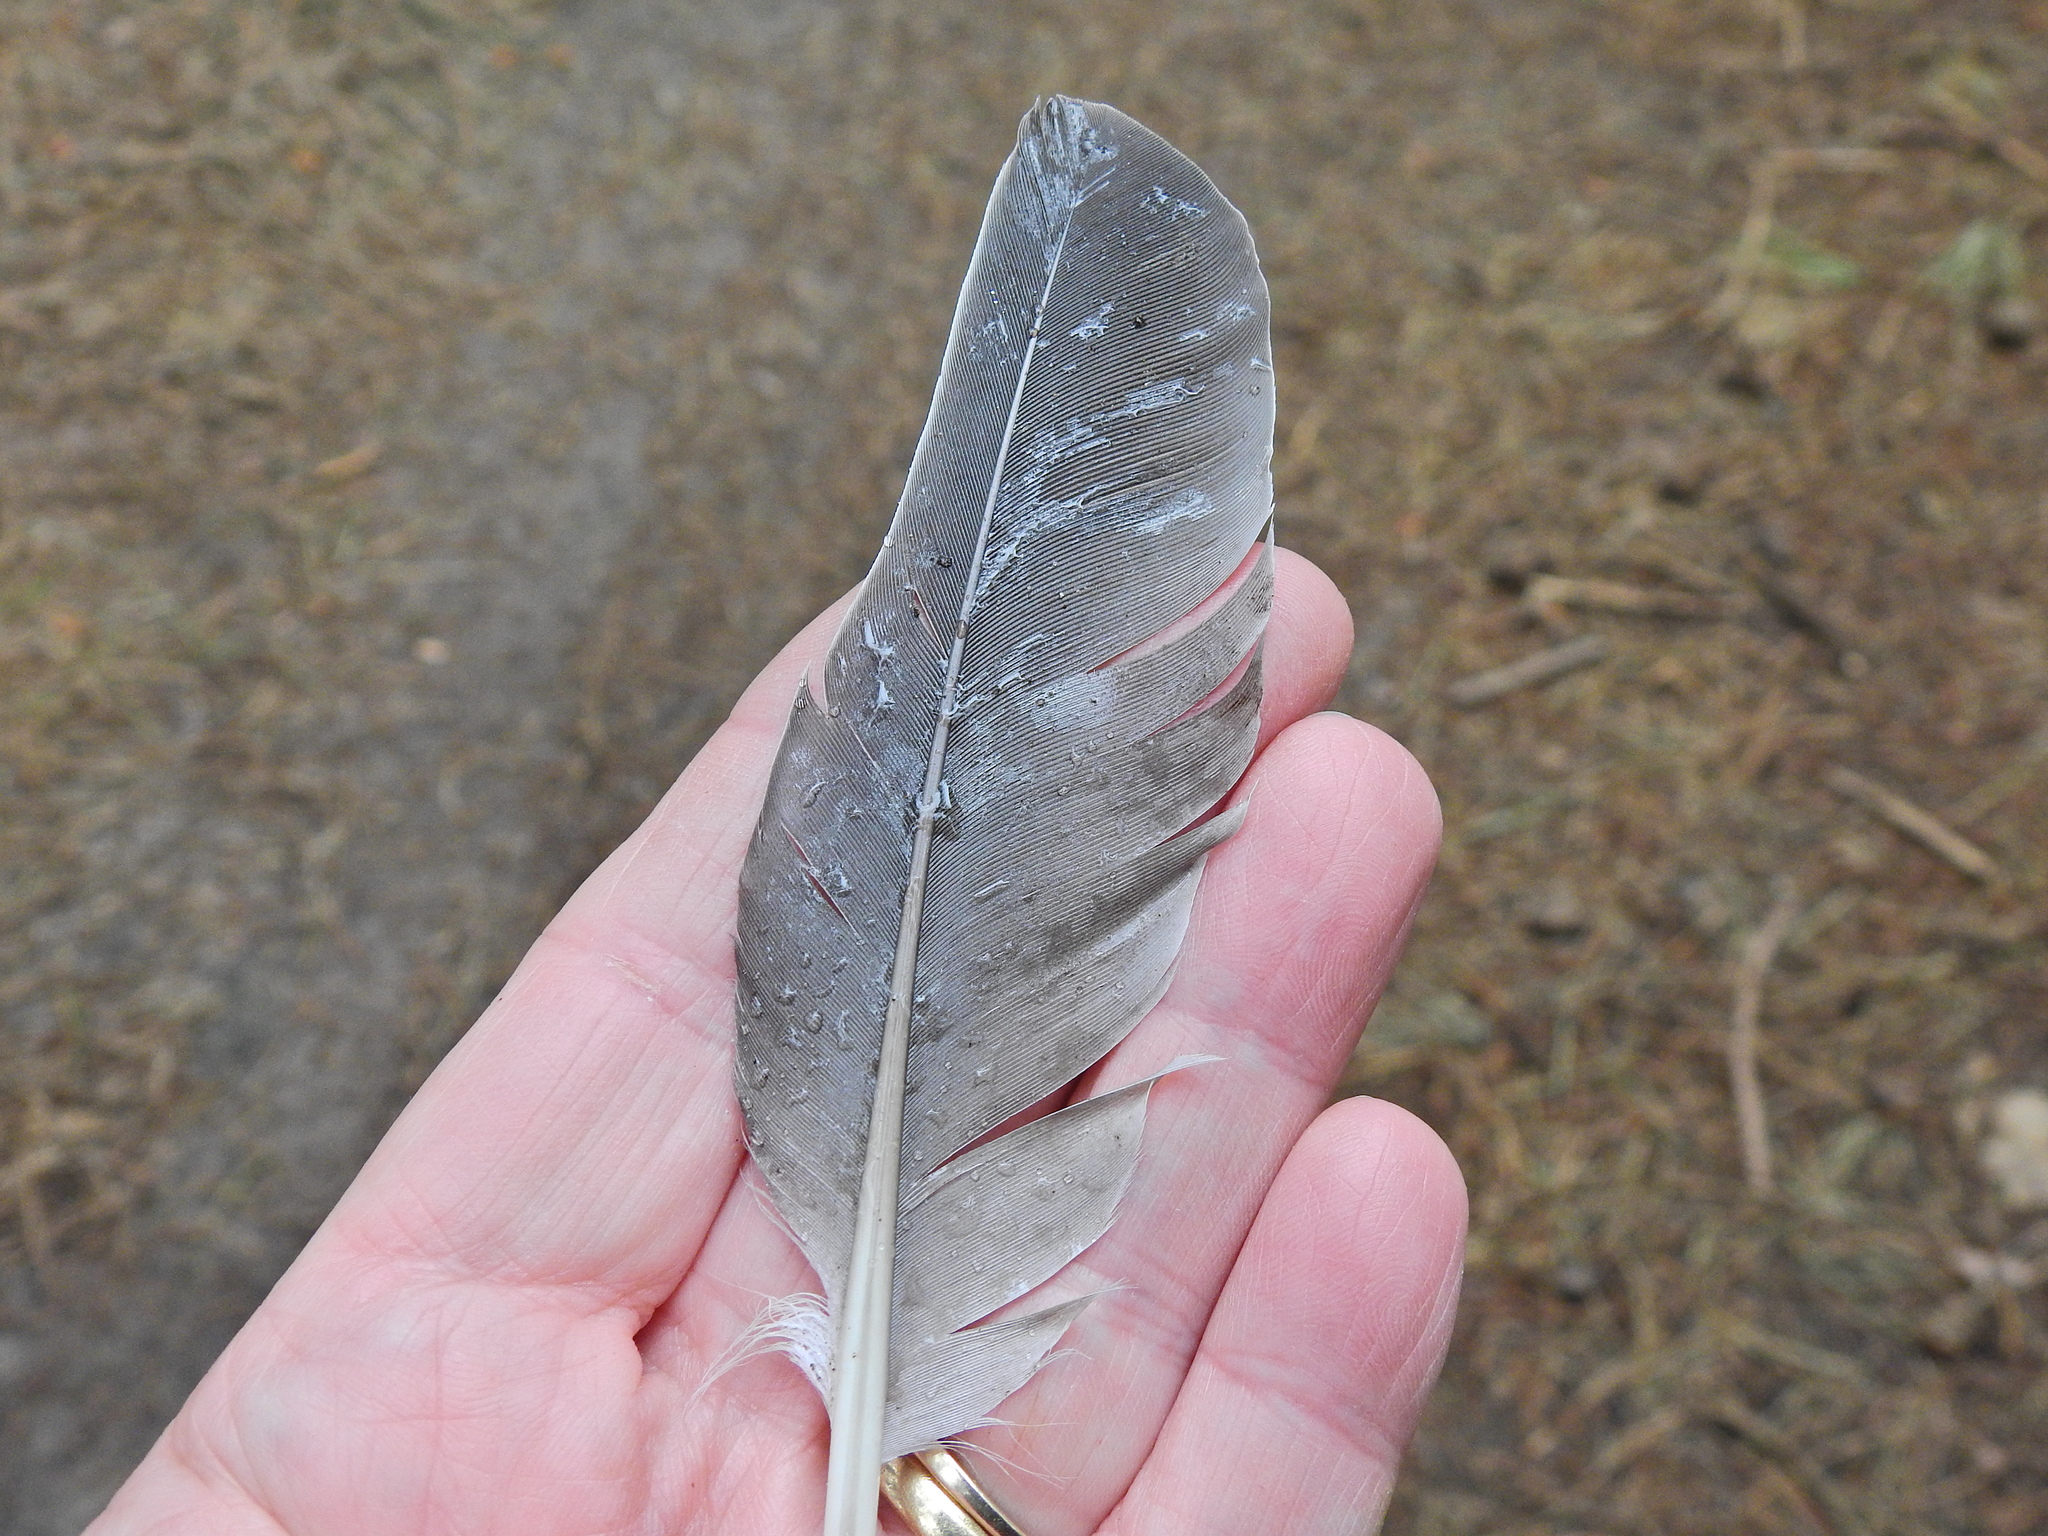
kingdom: Animalia
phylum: Chordata
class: Aves
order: Columbiformes
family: Columbidae
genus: Columba
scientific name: Columba palumbus
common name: Common wood pigeon
